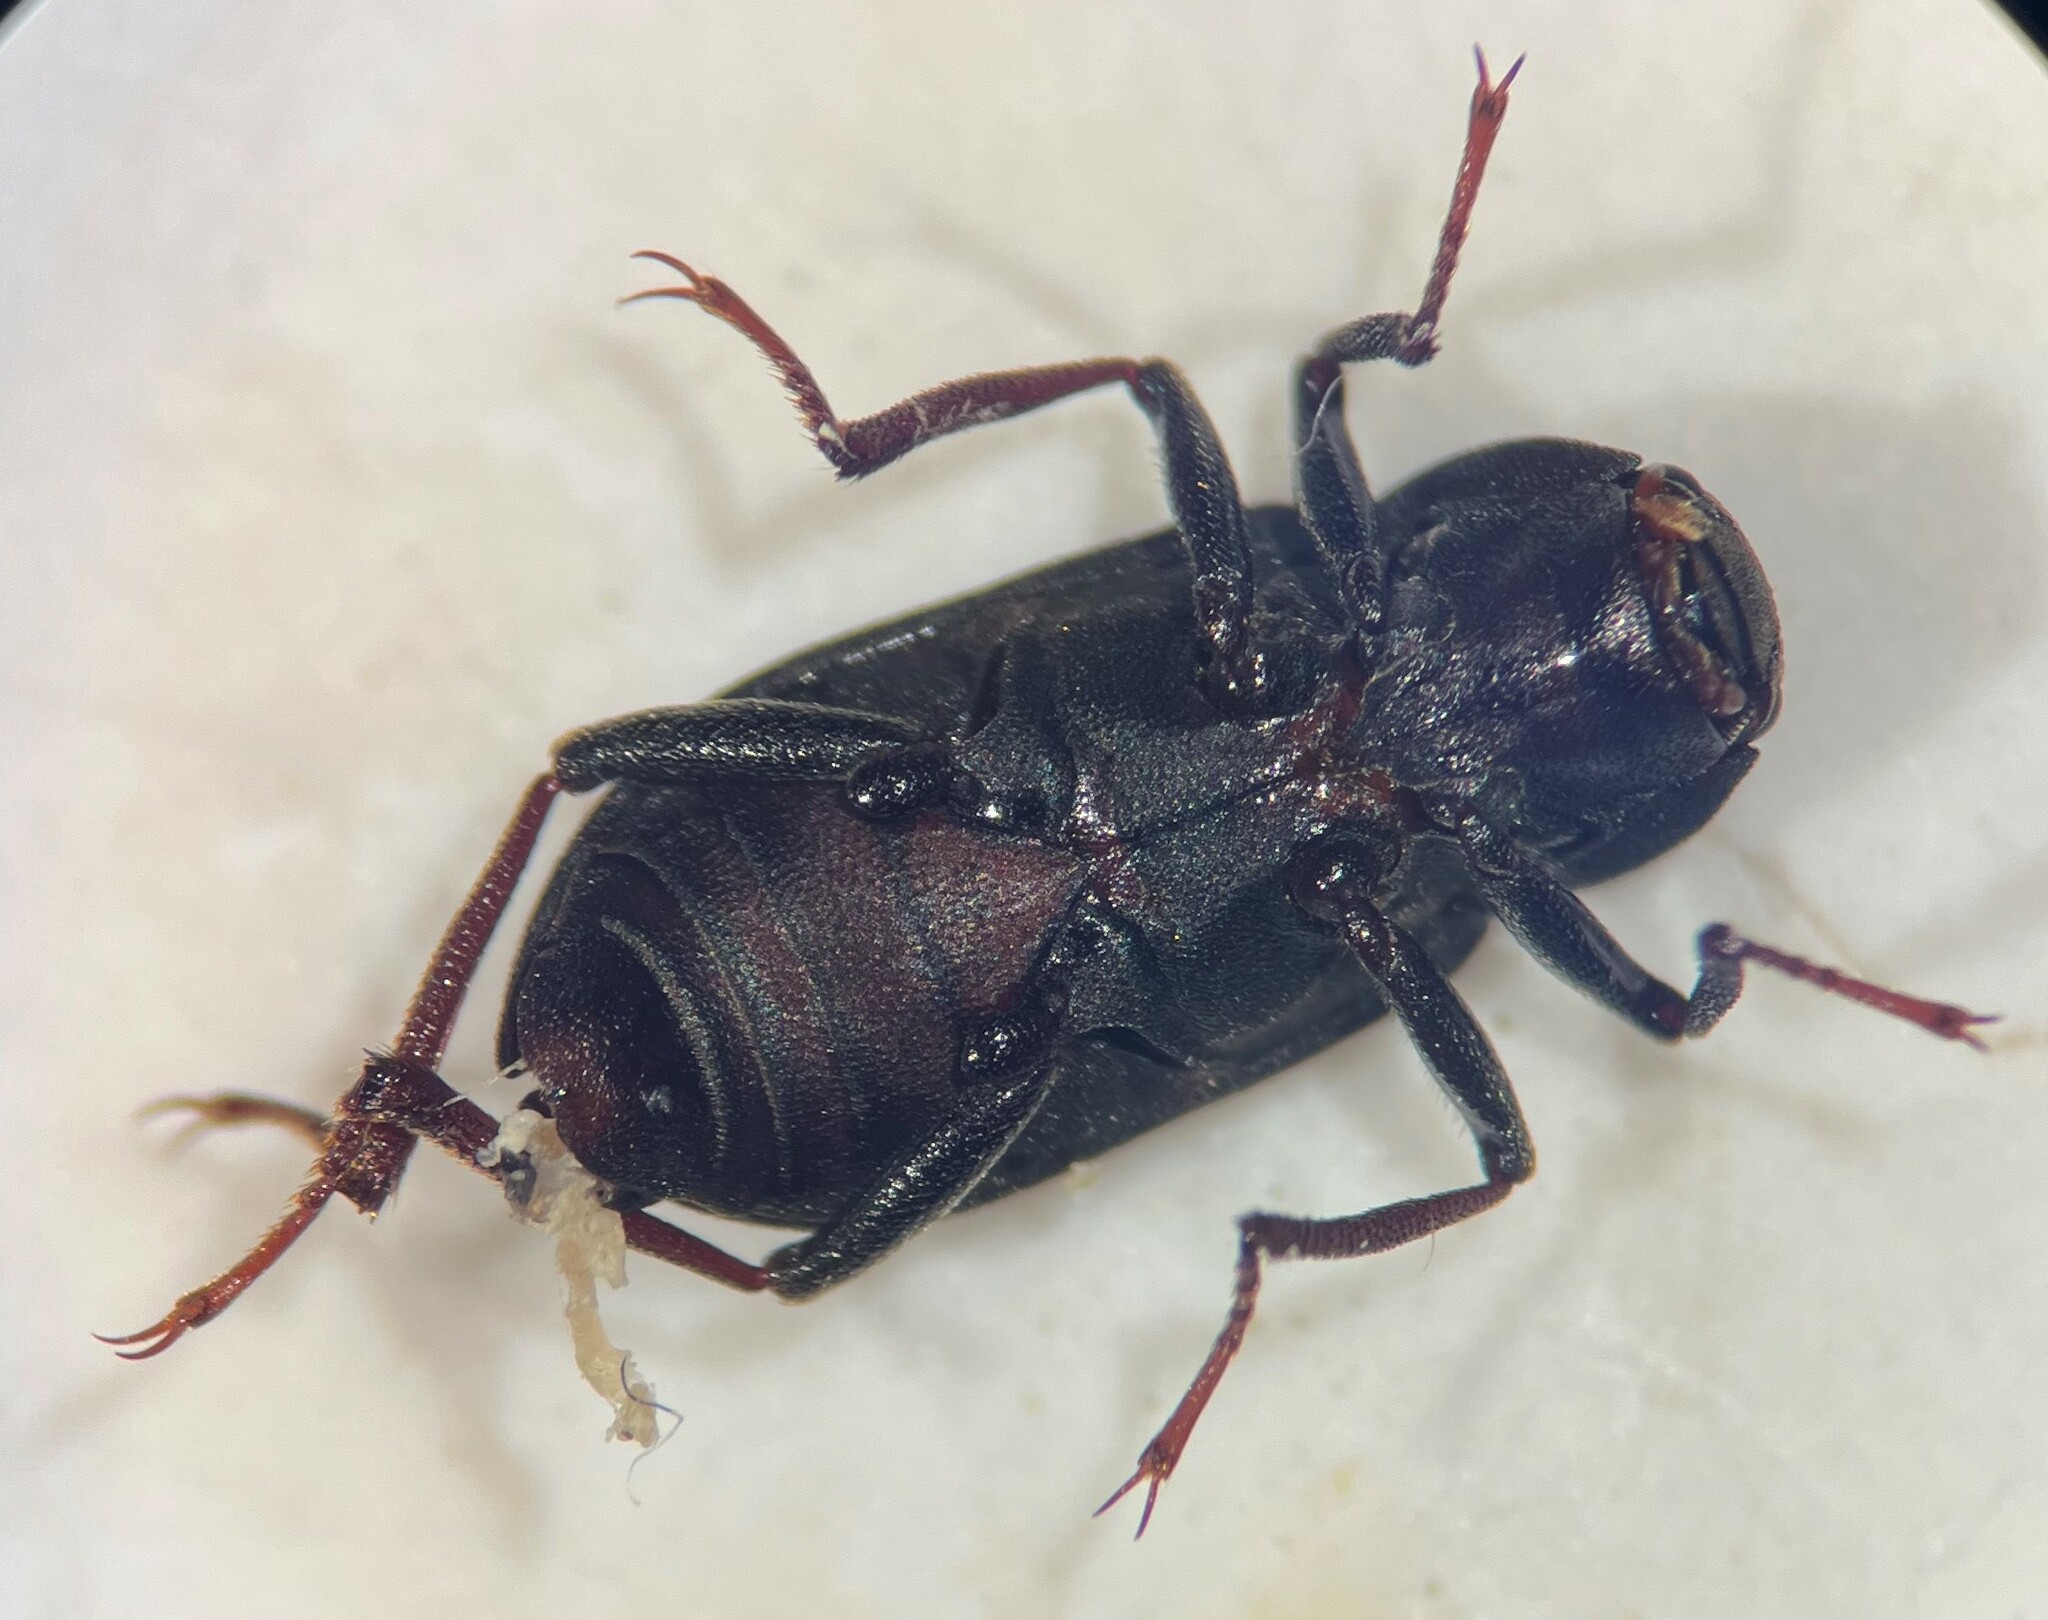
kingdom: Animalia
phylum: Arthropoda
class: Insecta
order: Coleoptera
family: Dryopidae
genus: Helichus
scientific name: Helichus triangularis
